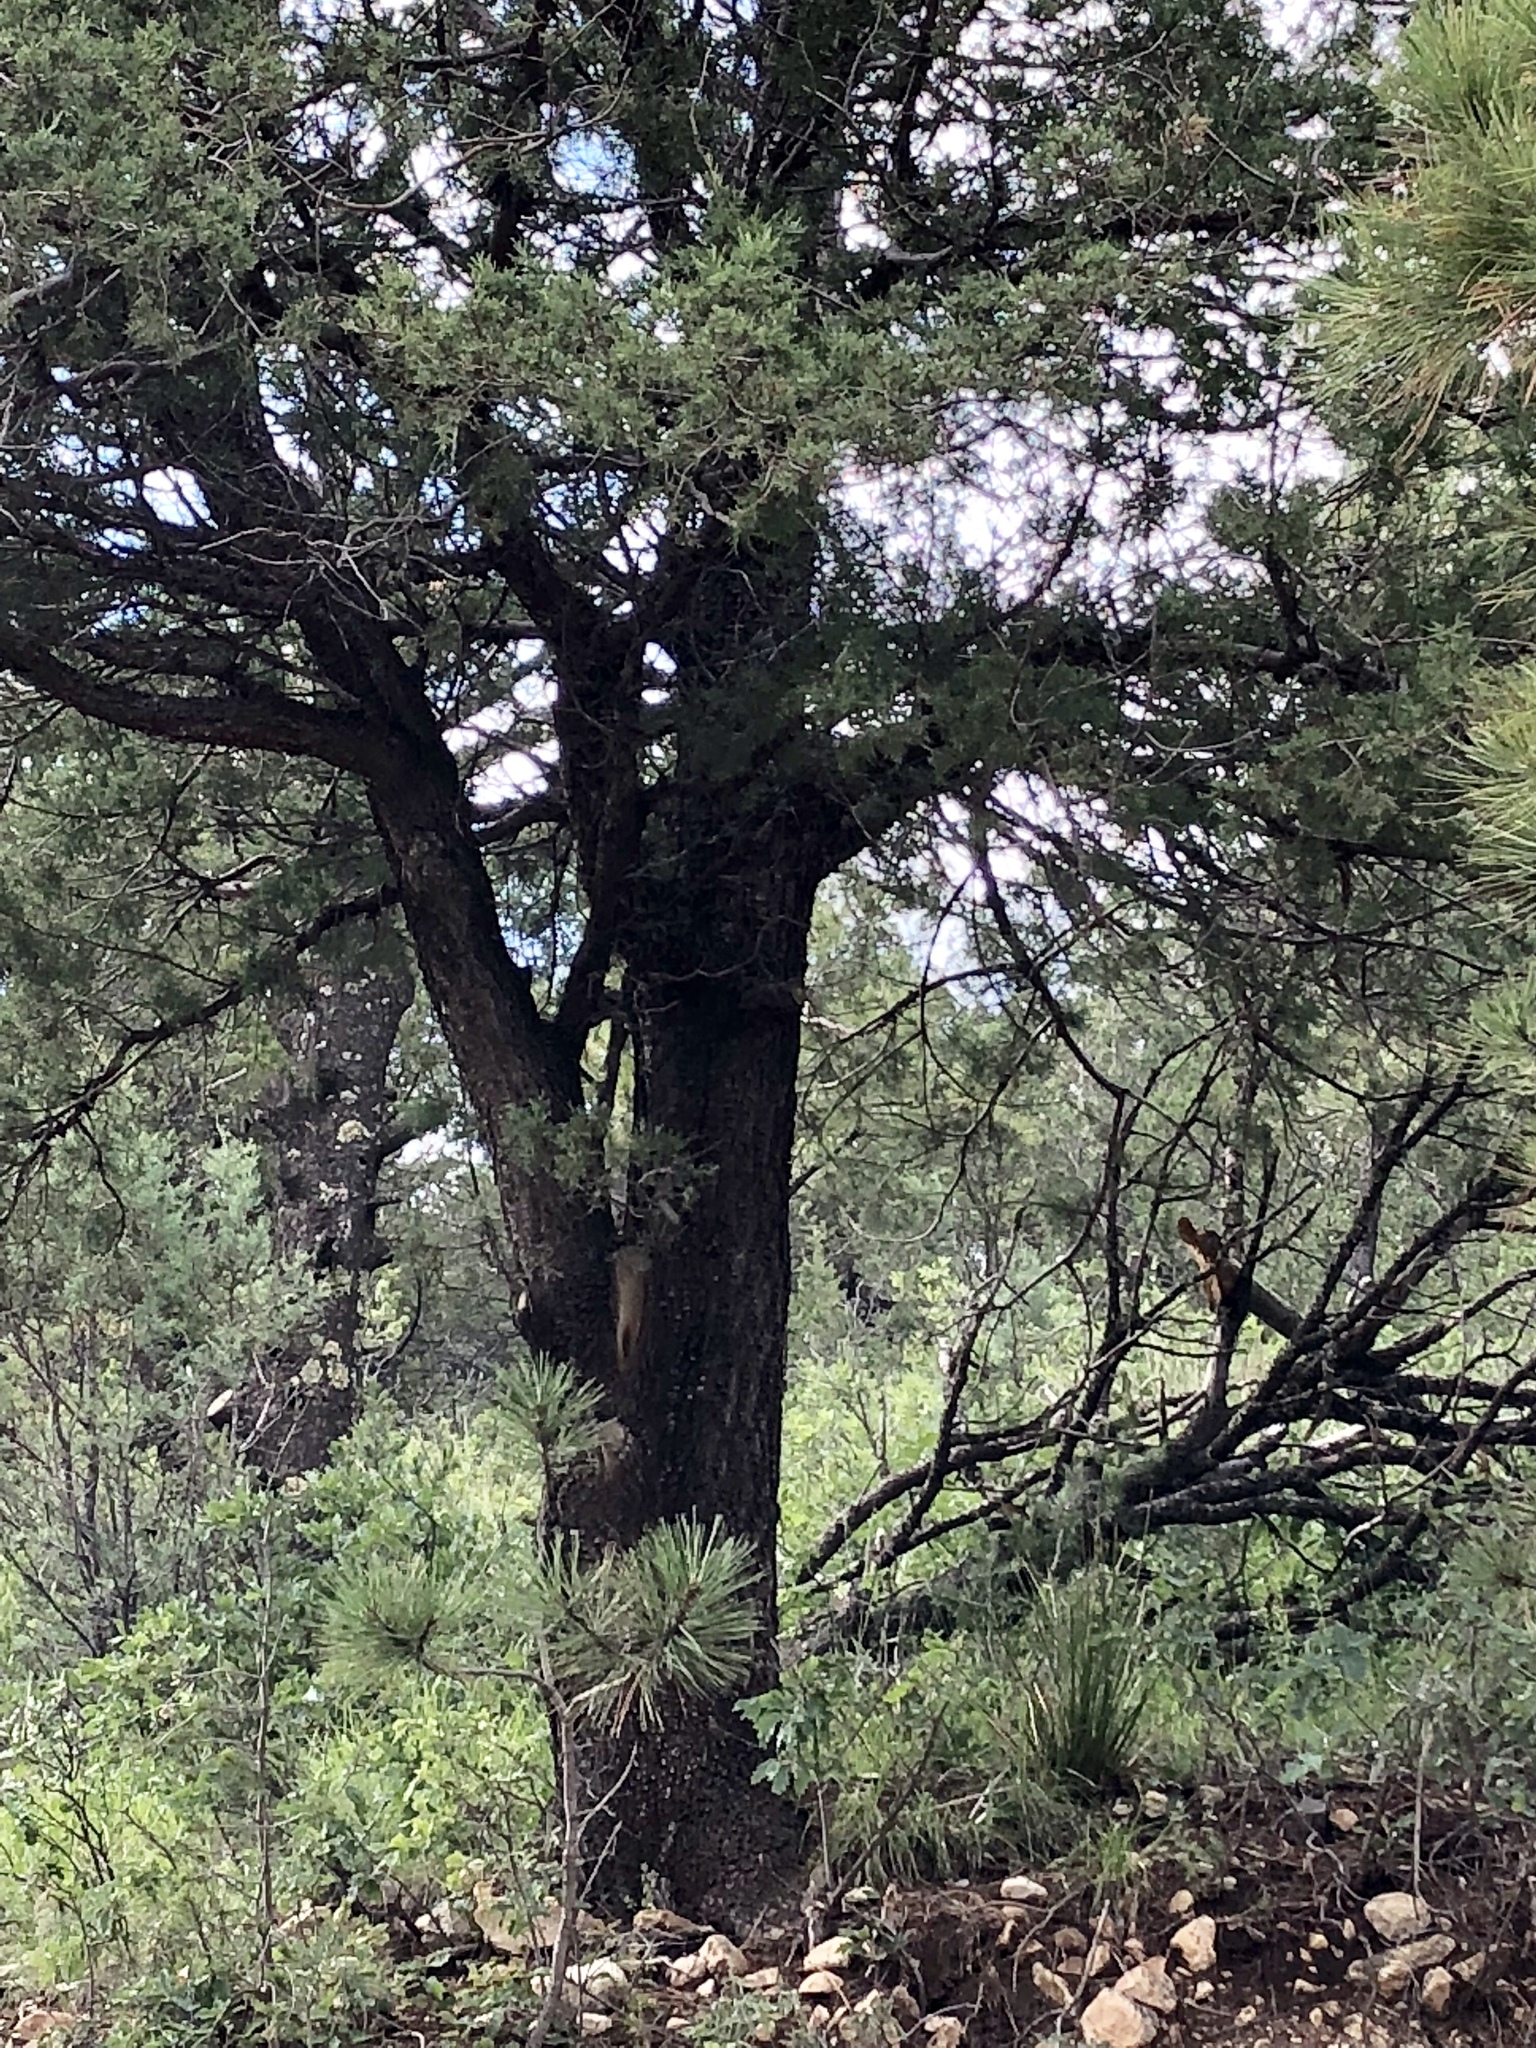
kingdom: Plantae
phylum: Tracheophyta
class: Pinopsida
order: Pinales
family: Cupressaceae
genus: Juniperus
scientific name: Juniperus deppeana
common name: Alligator juniper
